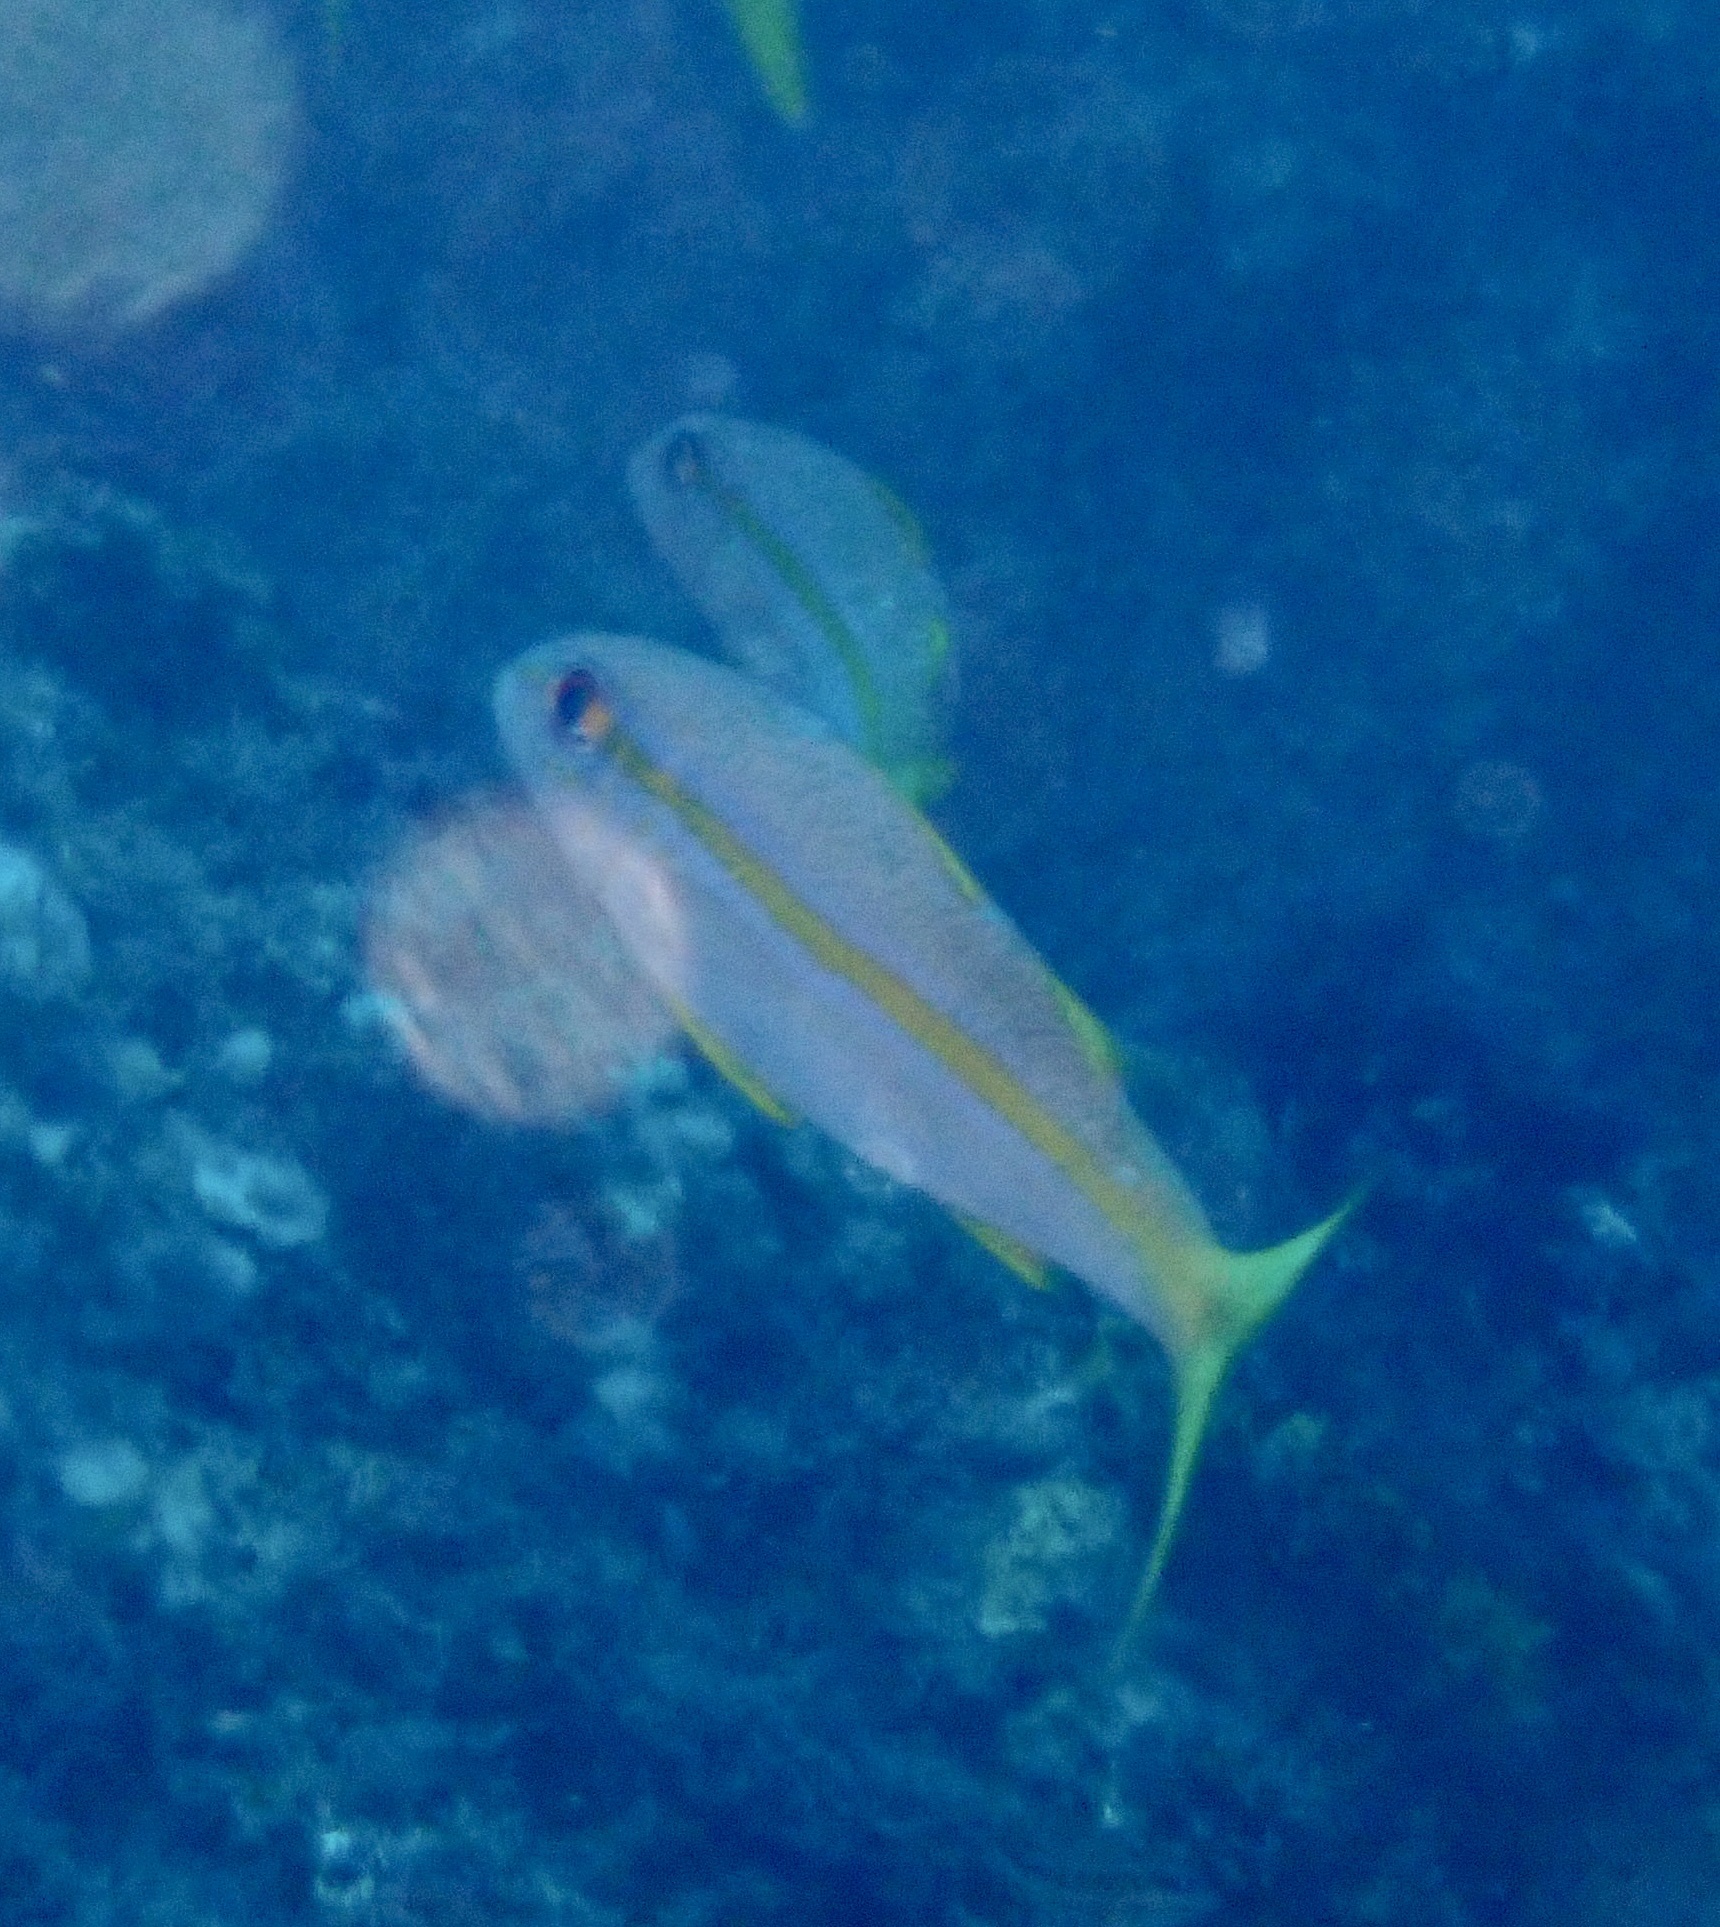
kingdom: Animalia
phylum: Chordata
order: Perciformes
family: Mullidae
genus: Mulloidichthys
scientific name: Mulloidichthys martinicus
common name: Yellow goatfish
